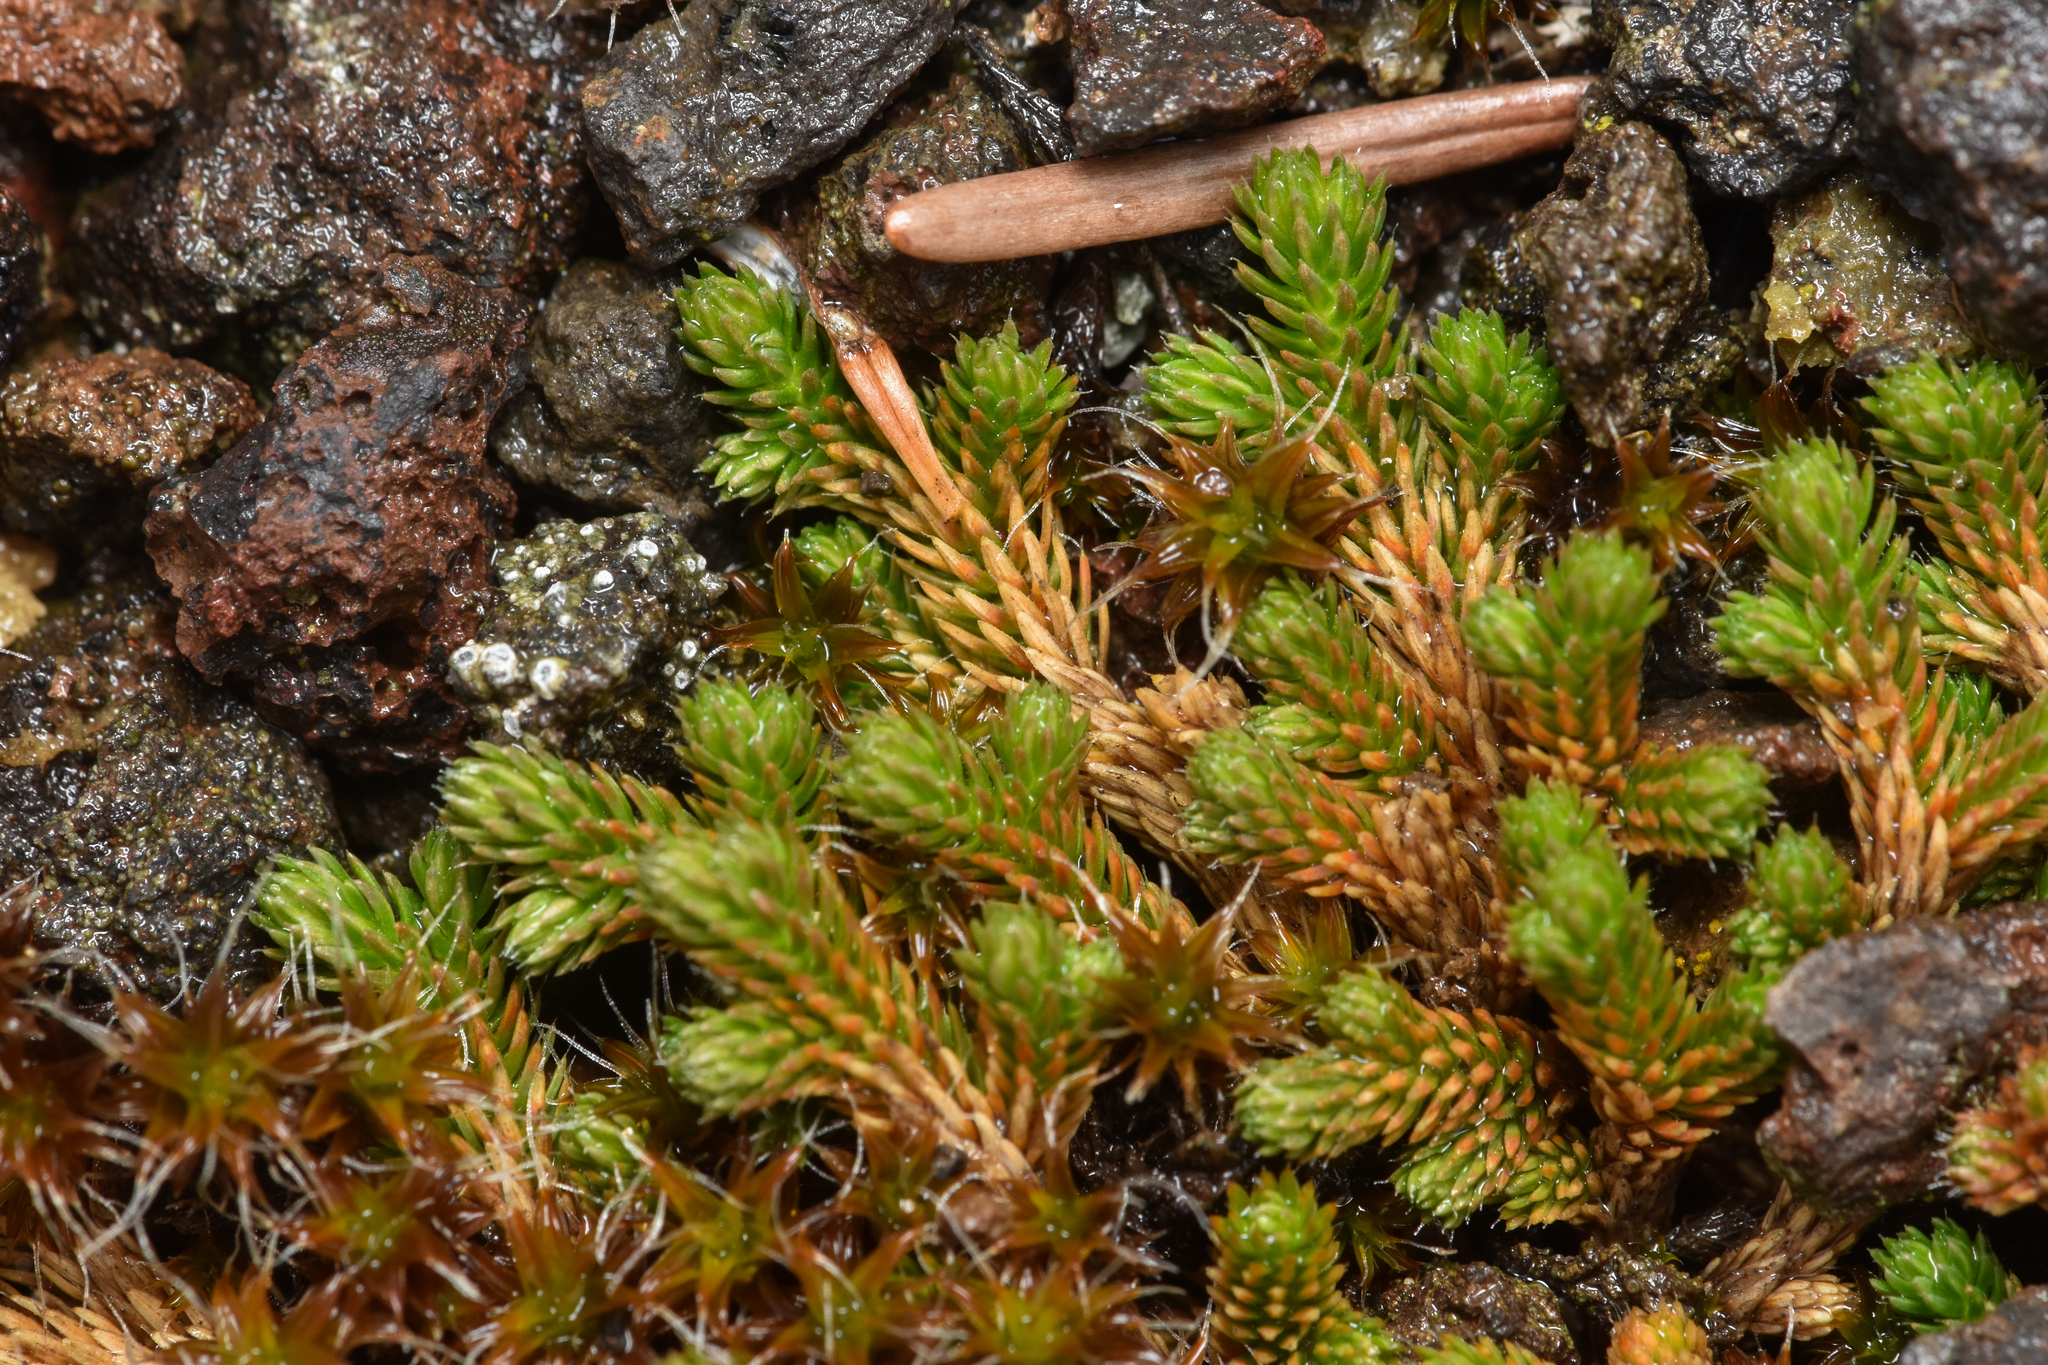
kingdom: Plantae
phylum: Tracheophyta
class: Lycopodiopsida
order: Selaginellales
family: Selaginellaceae
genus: Selaginella
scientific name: Selaginella wallacei
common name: Wallace's selaginella
